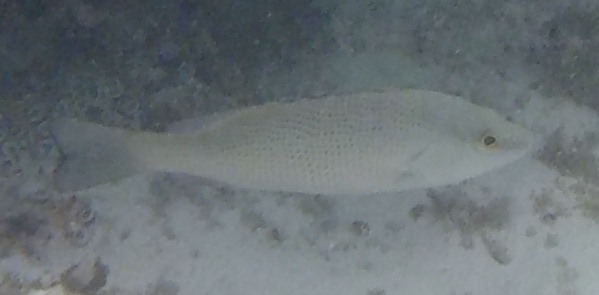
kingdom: Animalia
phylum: Chordata
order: Perciformes
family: Lutjanidae
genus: Lutjanus
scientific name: Lutjanus griseus
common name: Gray snapper
